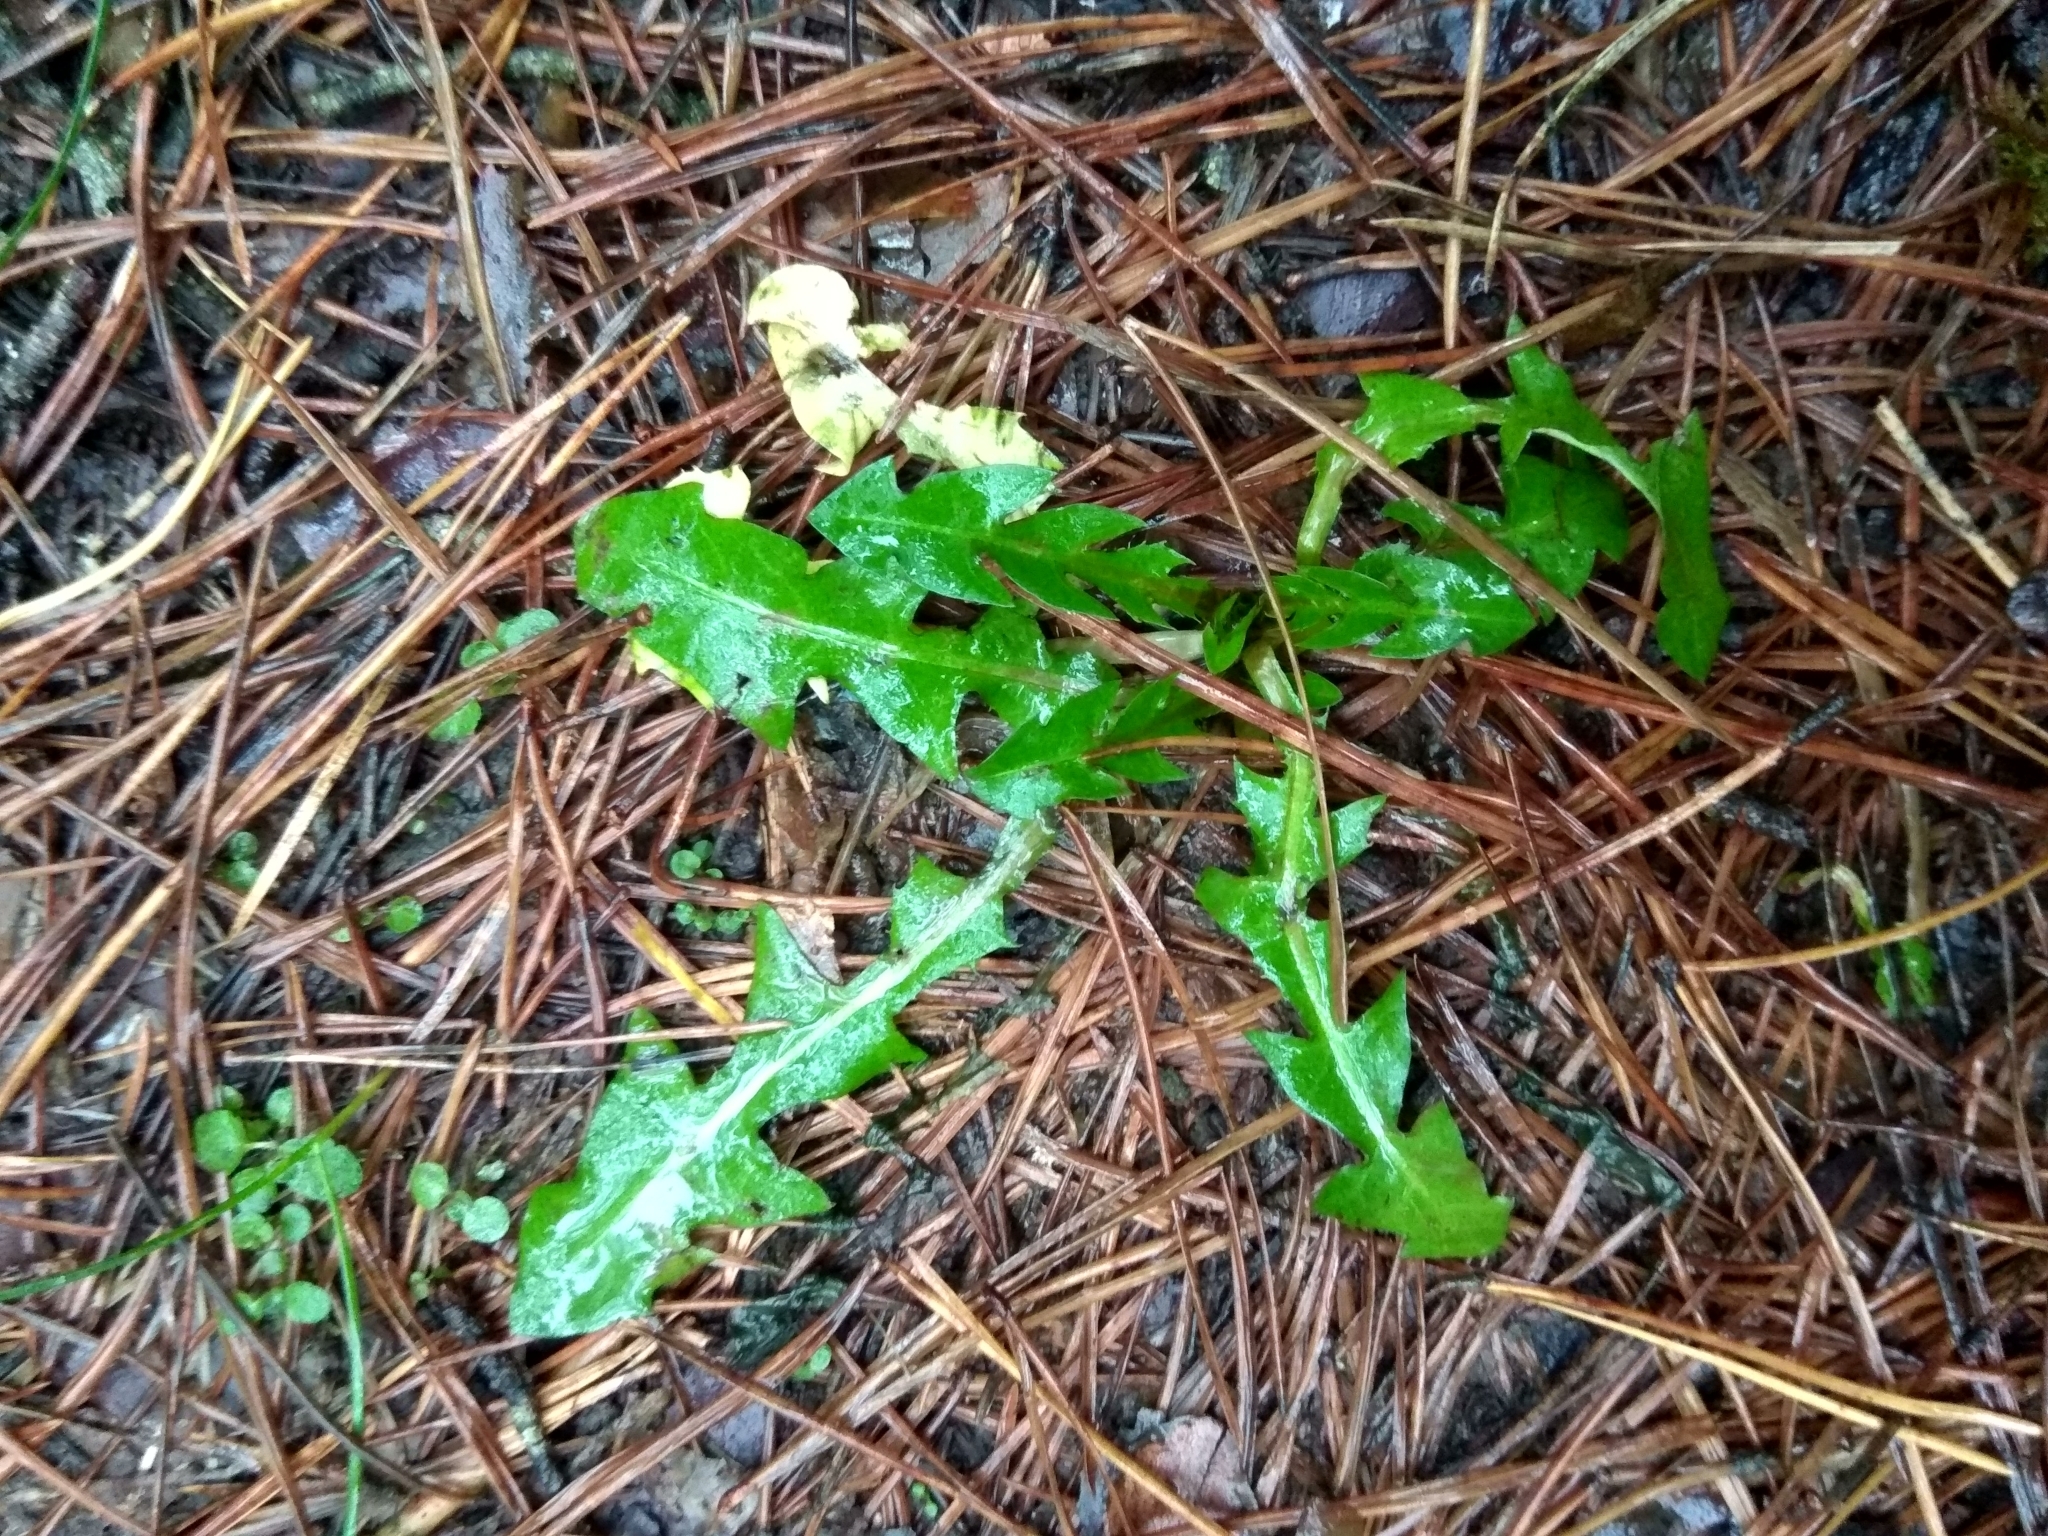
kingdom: Plantae
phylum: Tracheophyta
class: Magnoliopsida
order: Asterales
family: Asteraceae
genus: Taraxacum
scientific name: Taraxacum officinale
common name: Common dandelion
